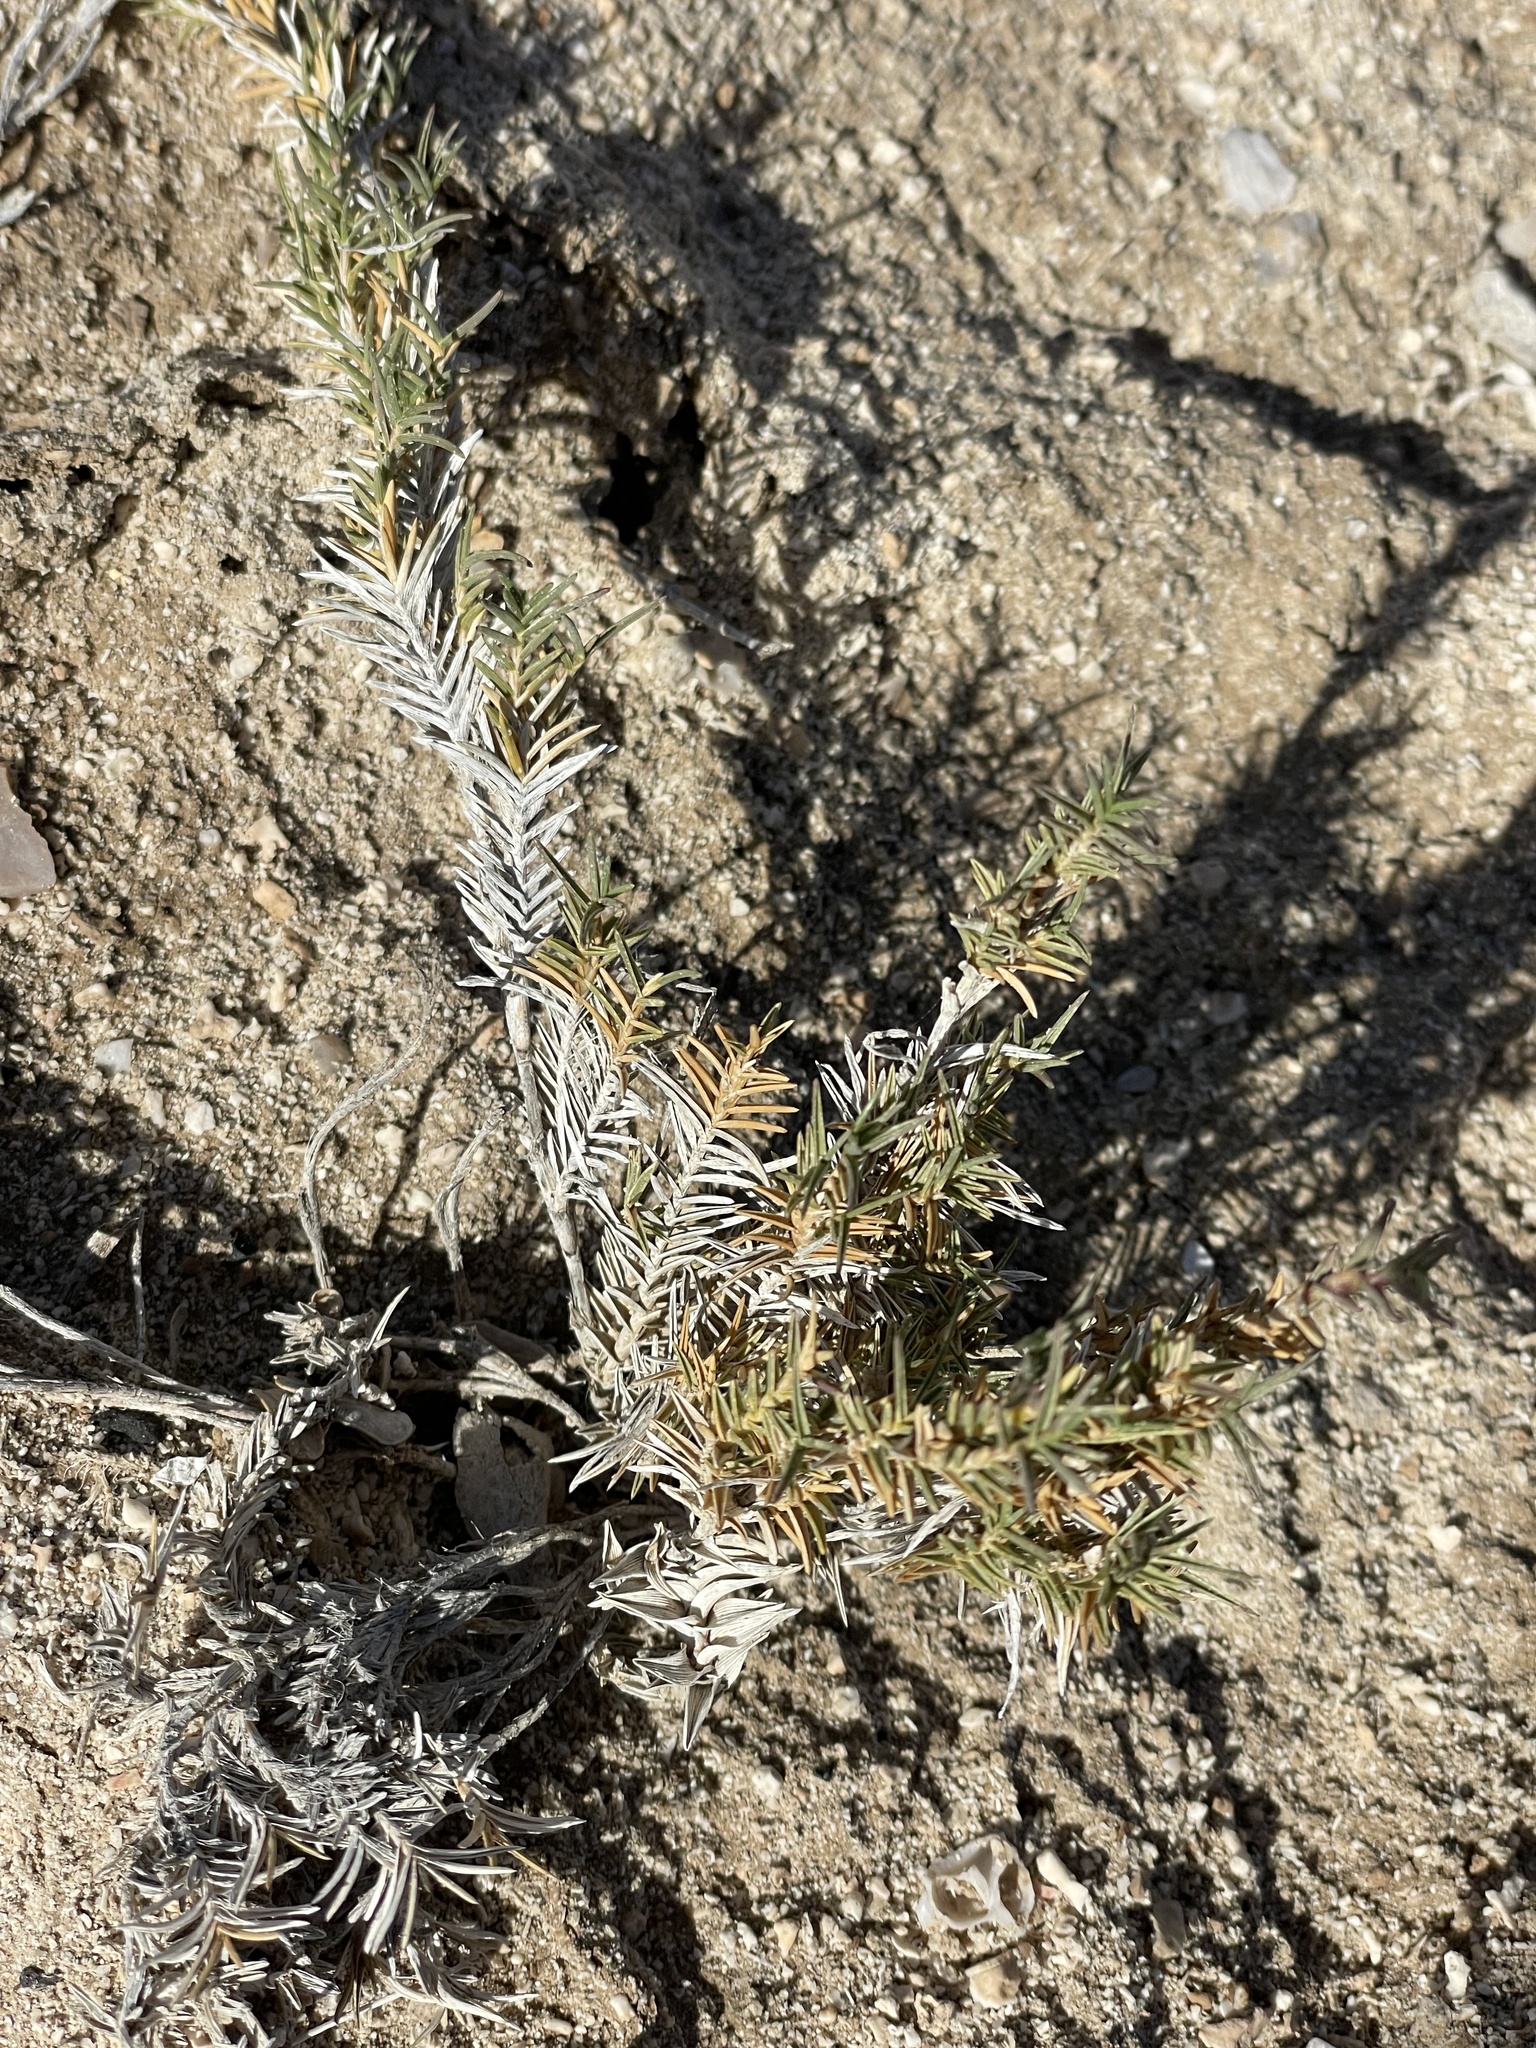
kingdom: Plantae
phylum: Tracheophyta
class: Liliopsida
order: Poales
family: Poaceae
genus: Distichlis
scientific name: Distichlis littoralis
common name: Shore grass
